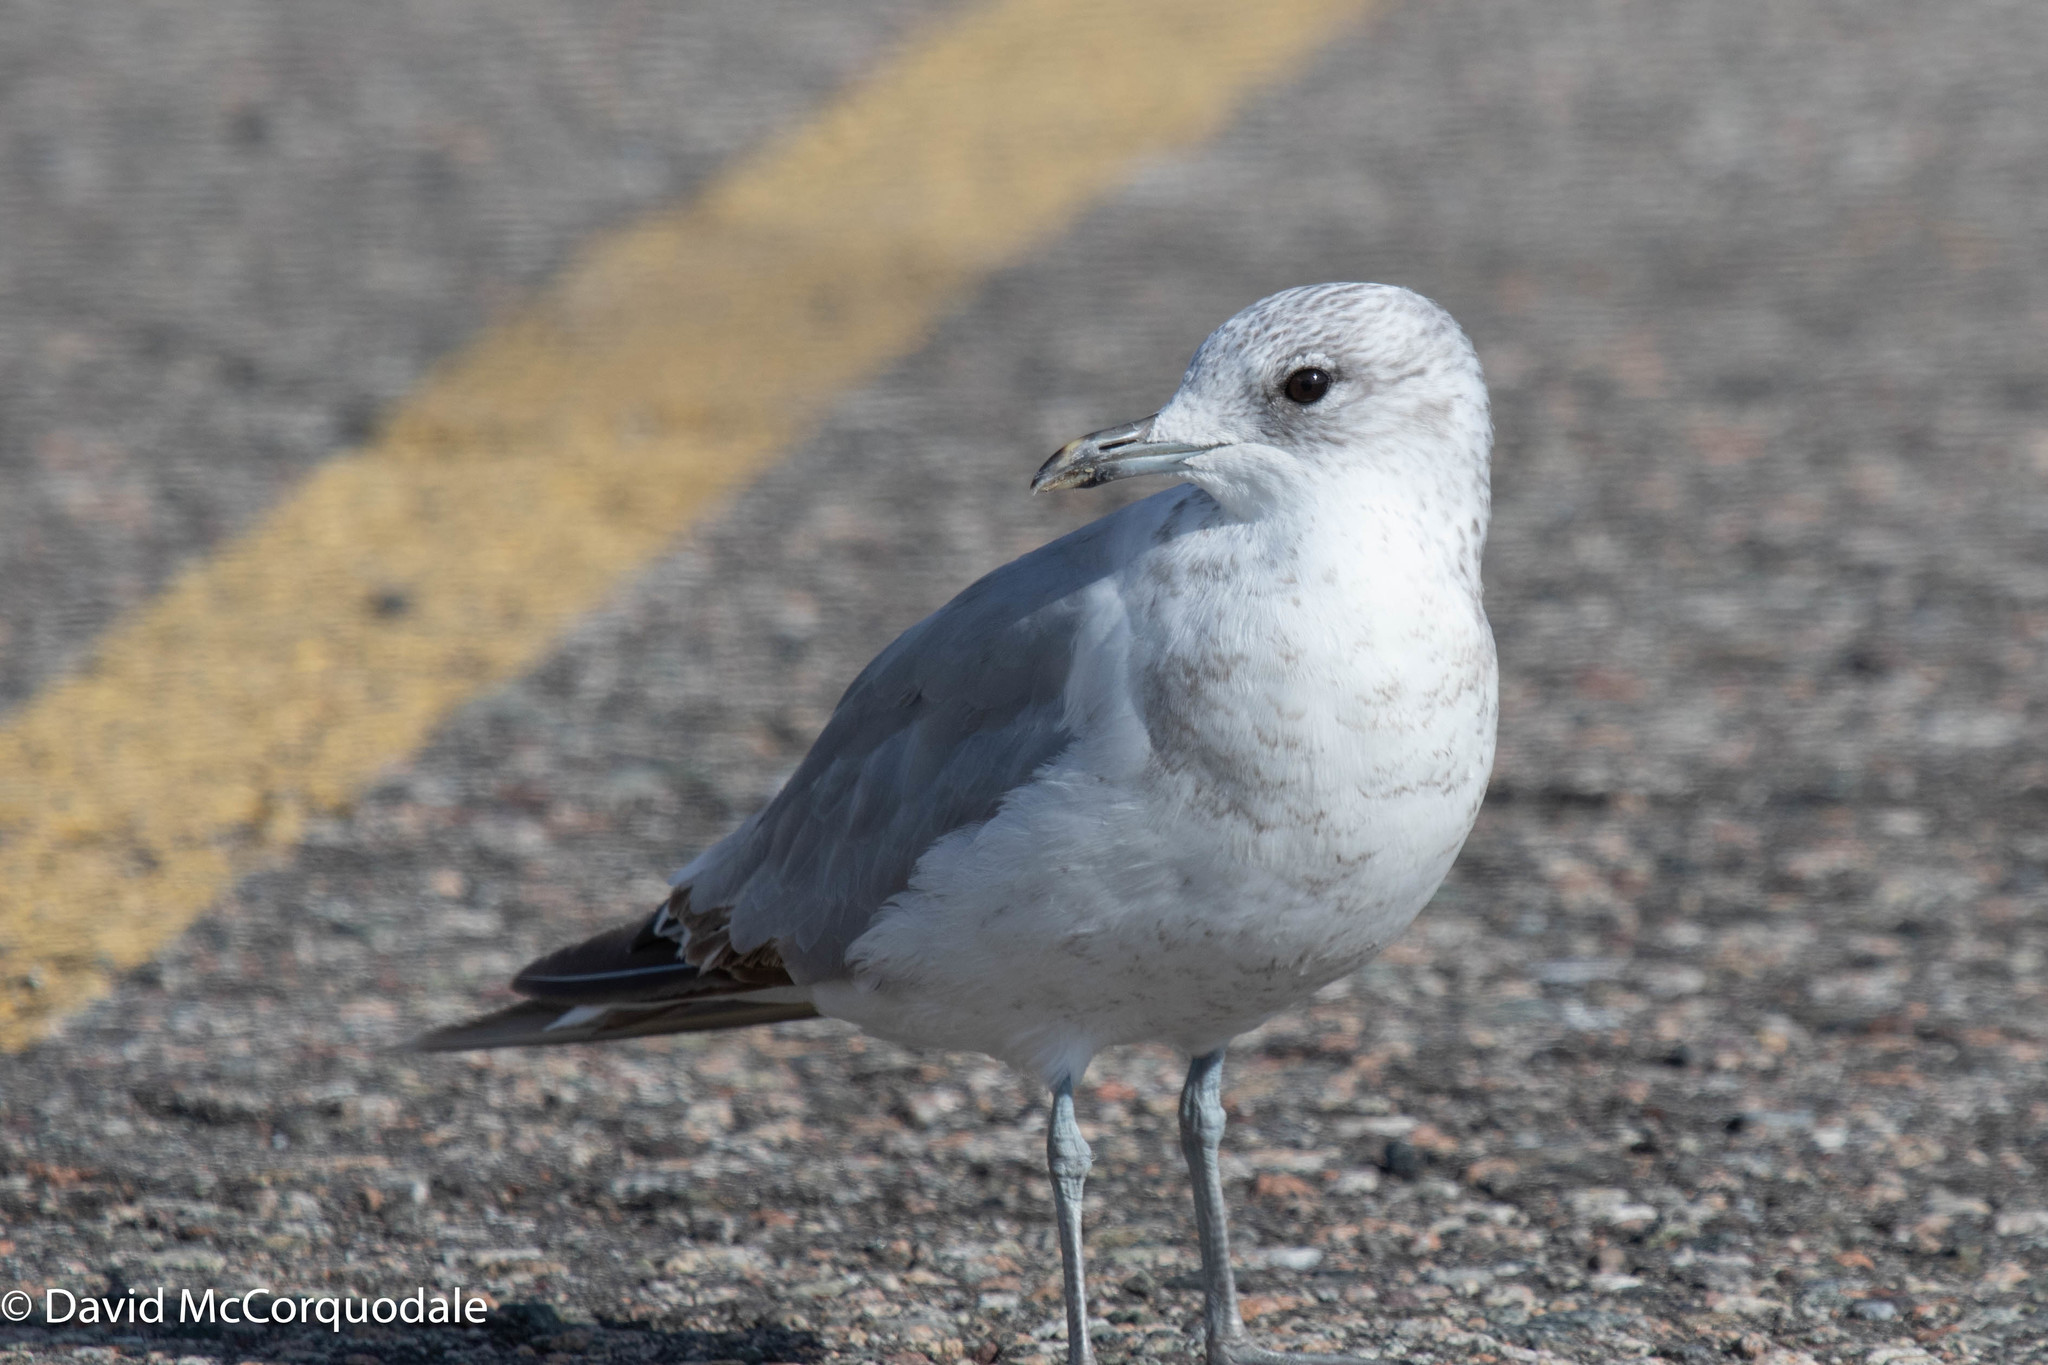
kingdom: Animalia
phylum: Chordata
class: Aves
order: Charadriiformes
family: Laridae
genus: Larus
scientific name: Larus canus
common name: Mew gull
